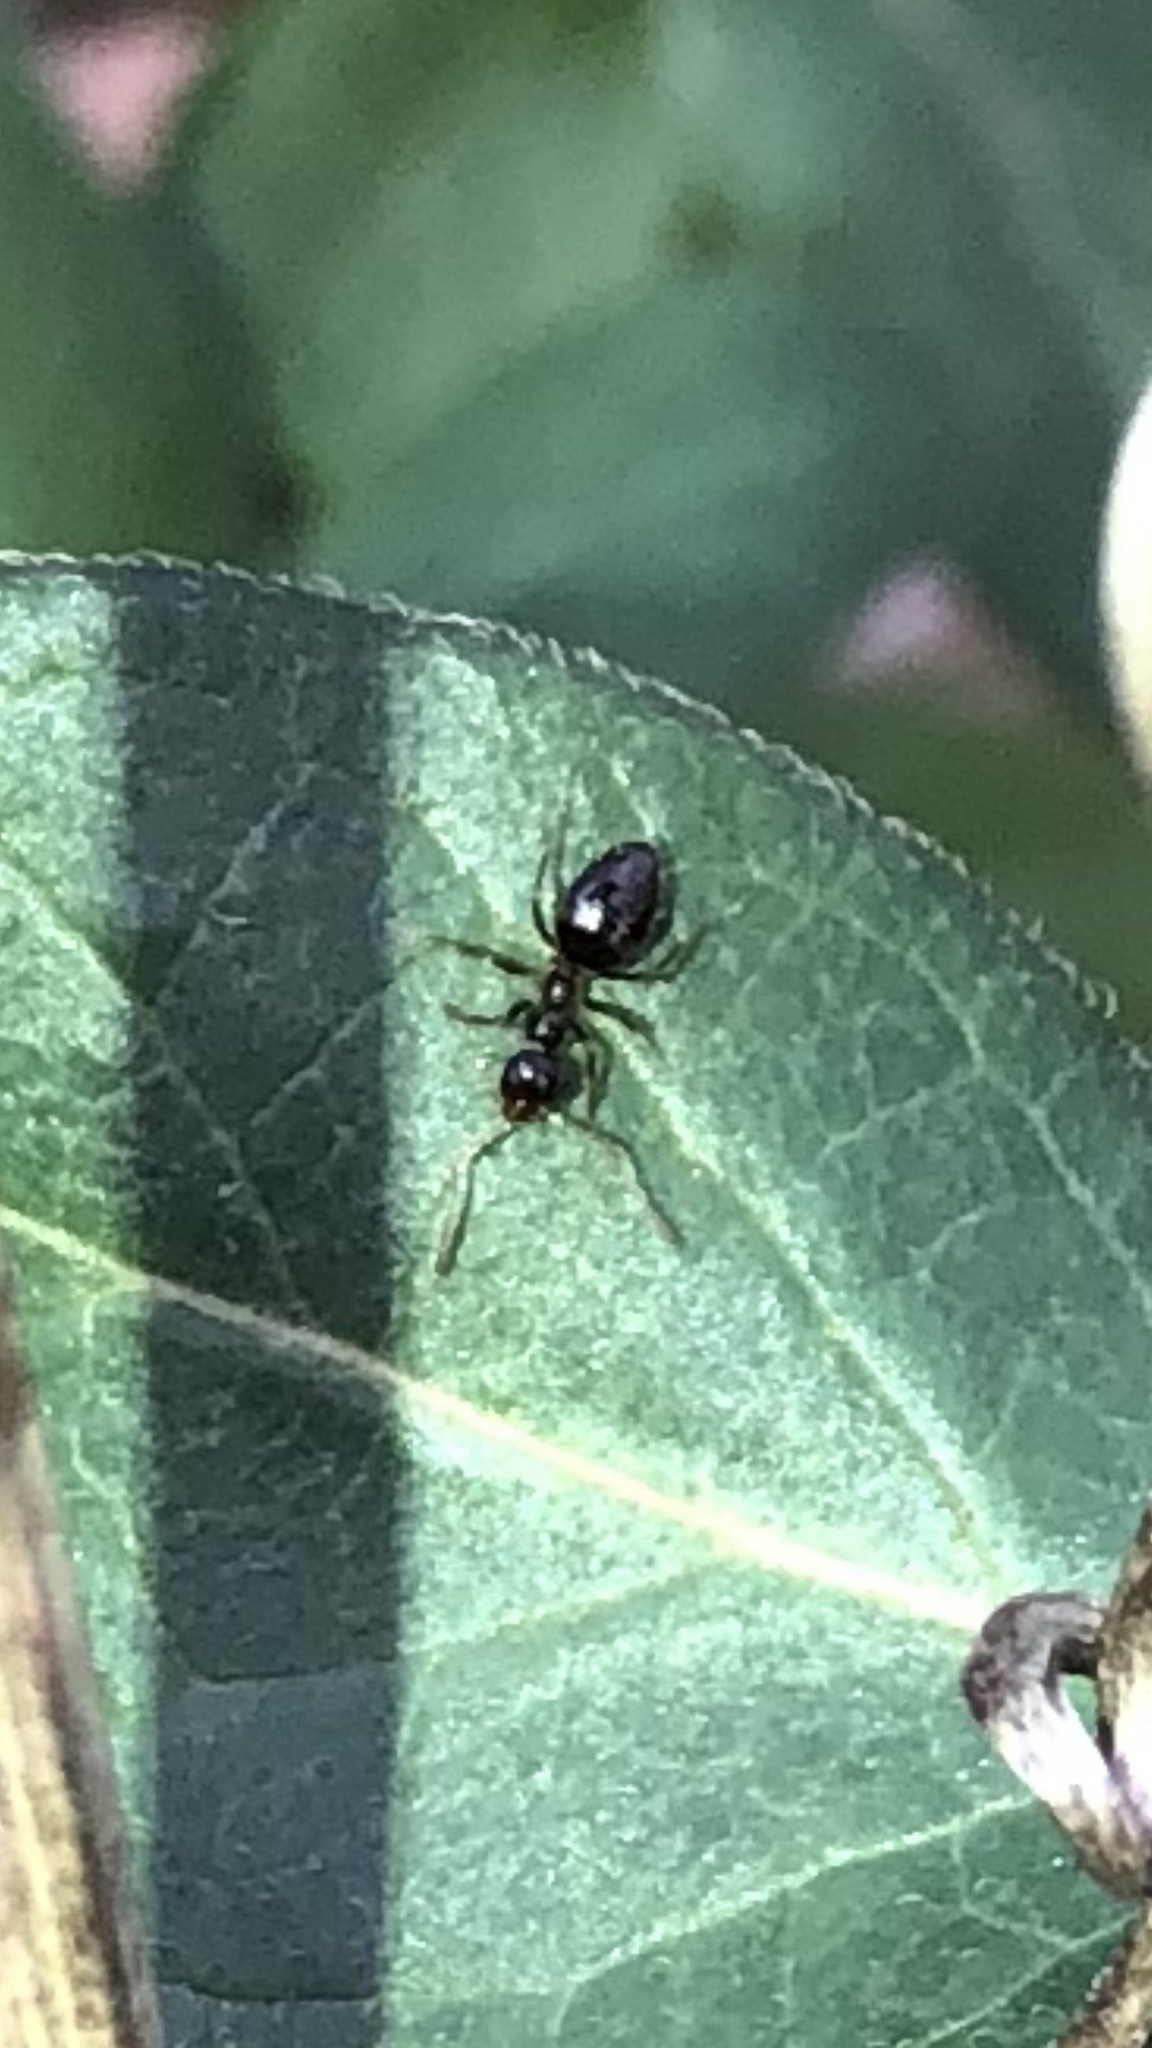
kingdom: Animalia
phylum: Arthropoda
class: Insecta
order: Hymenoptera
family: Formicidae
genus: Prenolepis
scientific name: Prenolepis imparis
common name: Small honey ant
